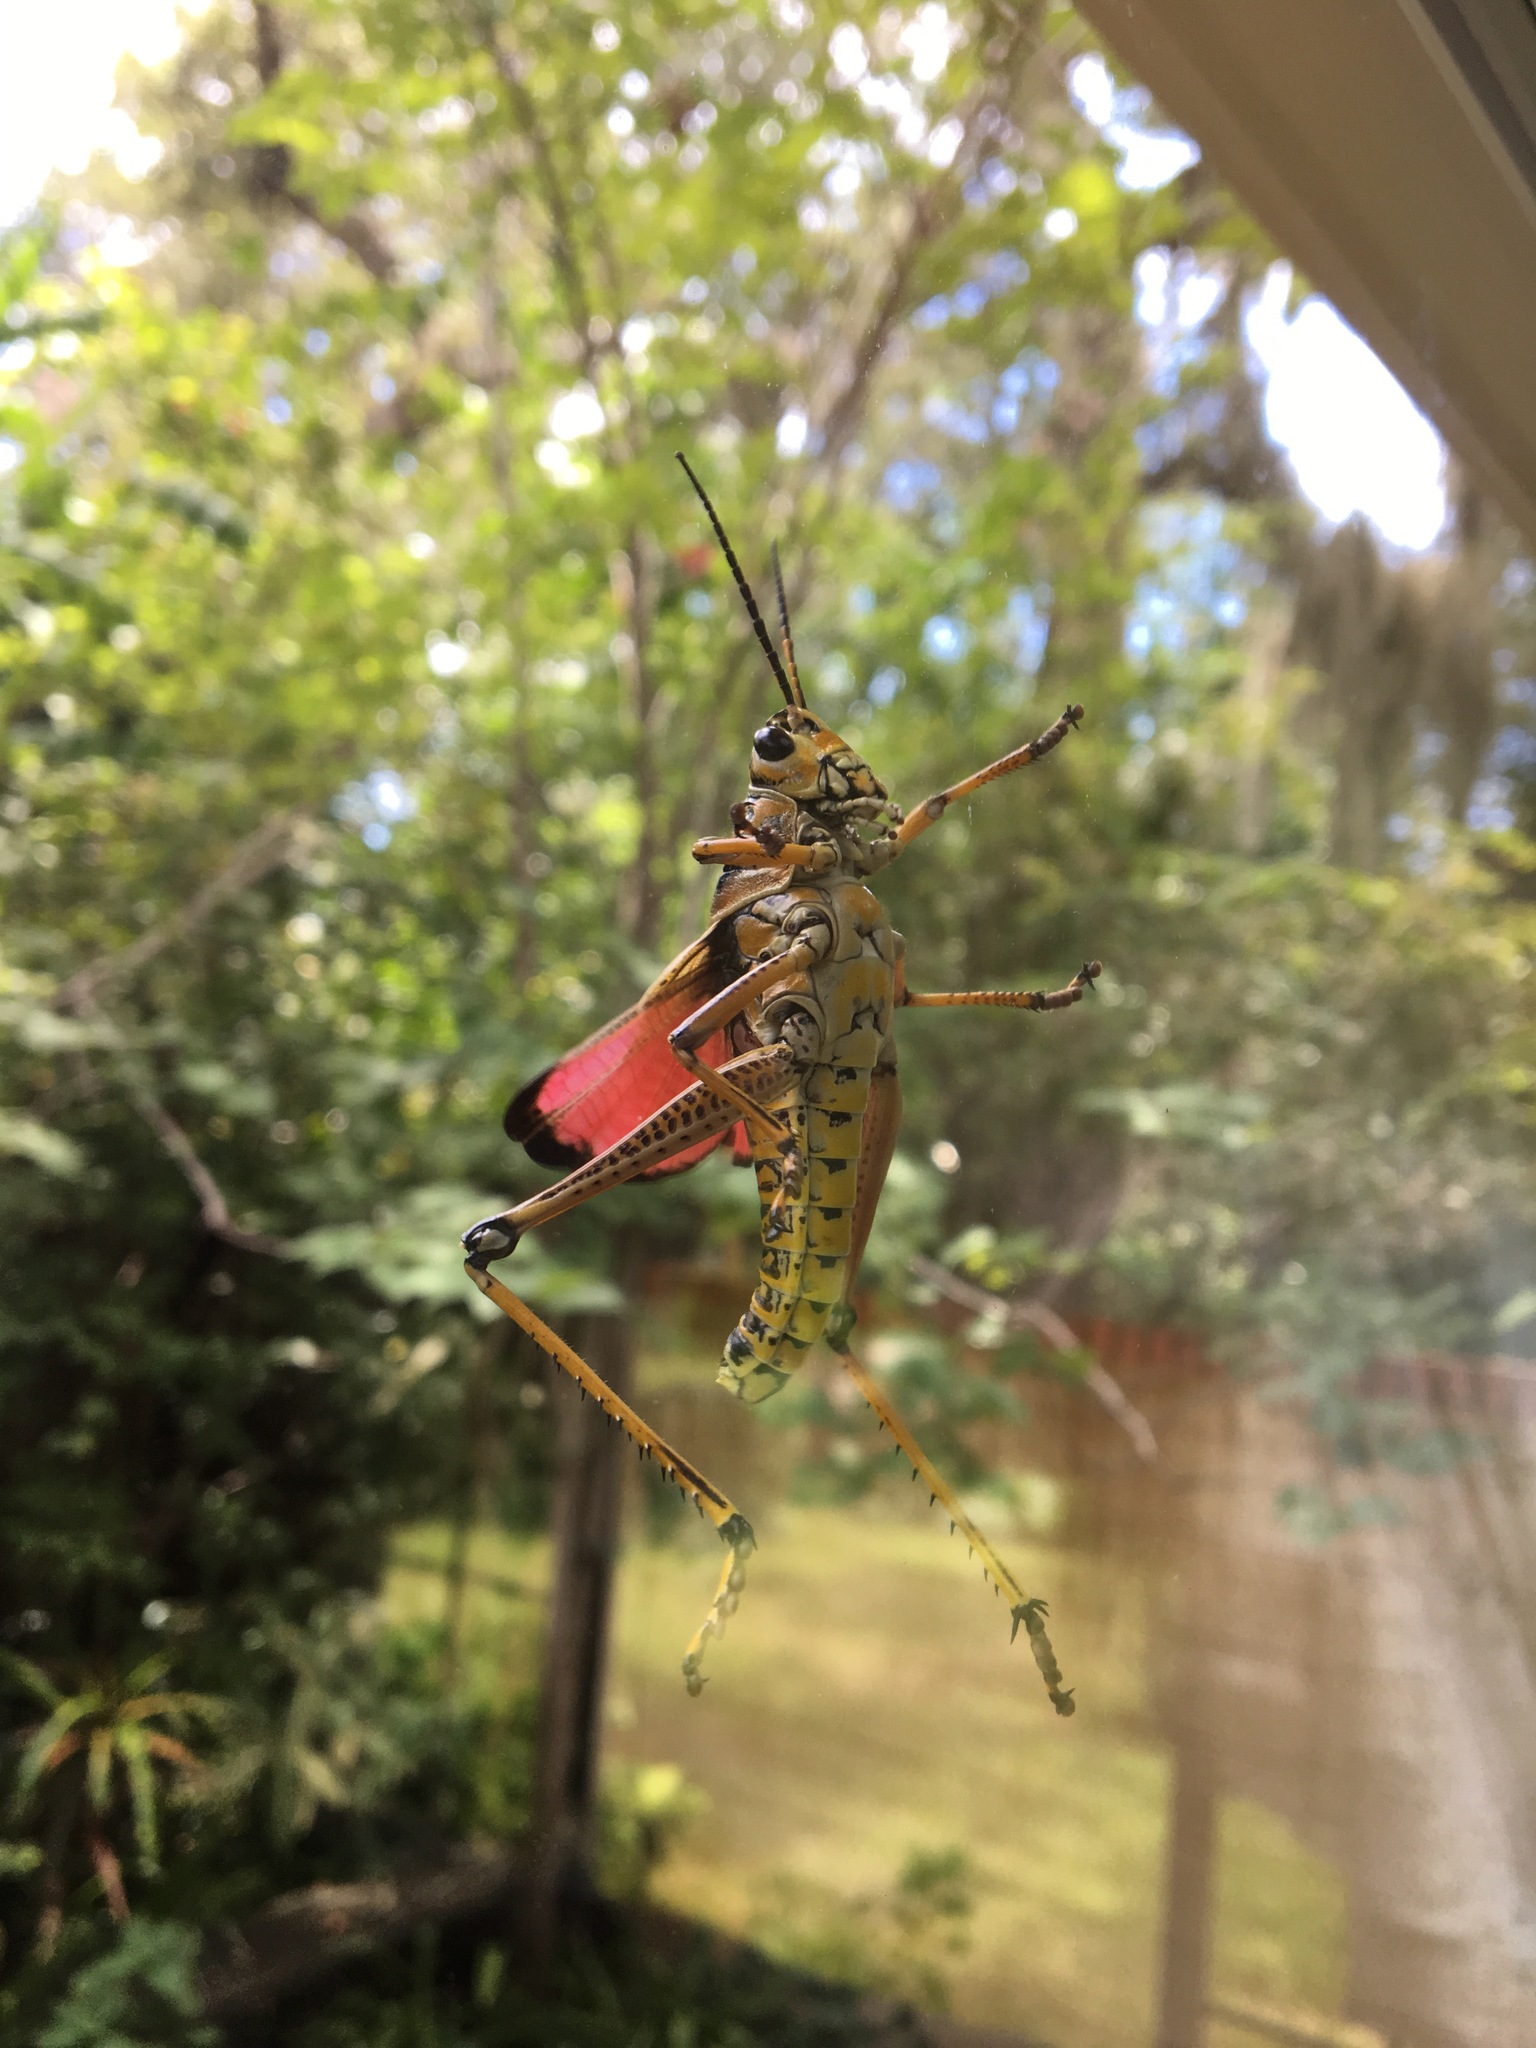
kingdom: Animalia
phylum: Arthropoda
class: Insecta
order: Orthoptera
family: Romaleidae
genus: Romalea
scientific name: Romalea microptera
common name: Eastern lubber grasshopper
